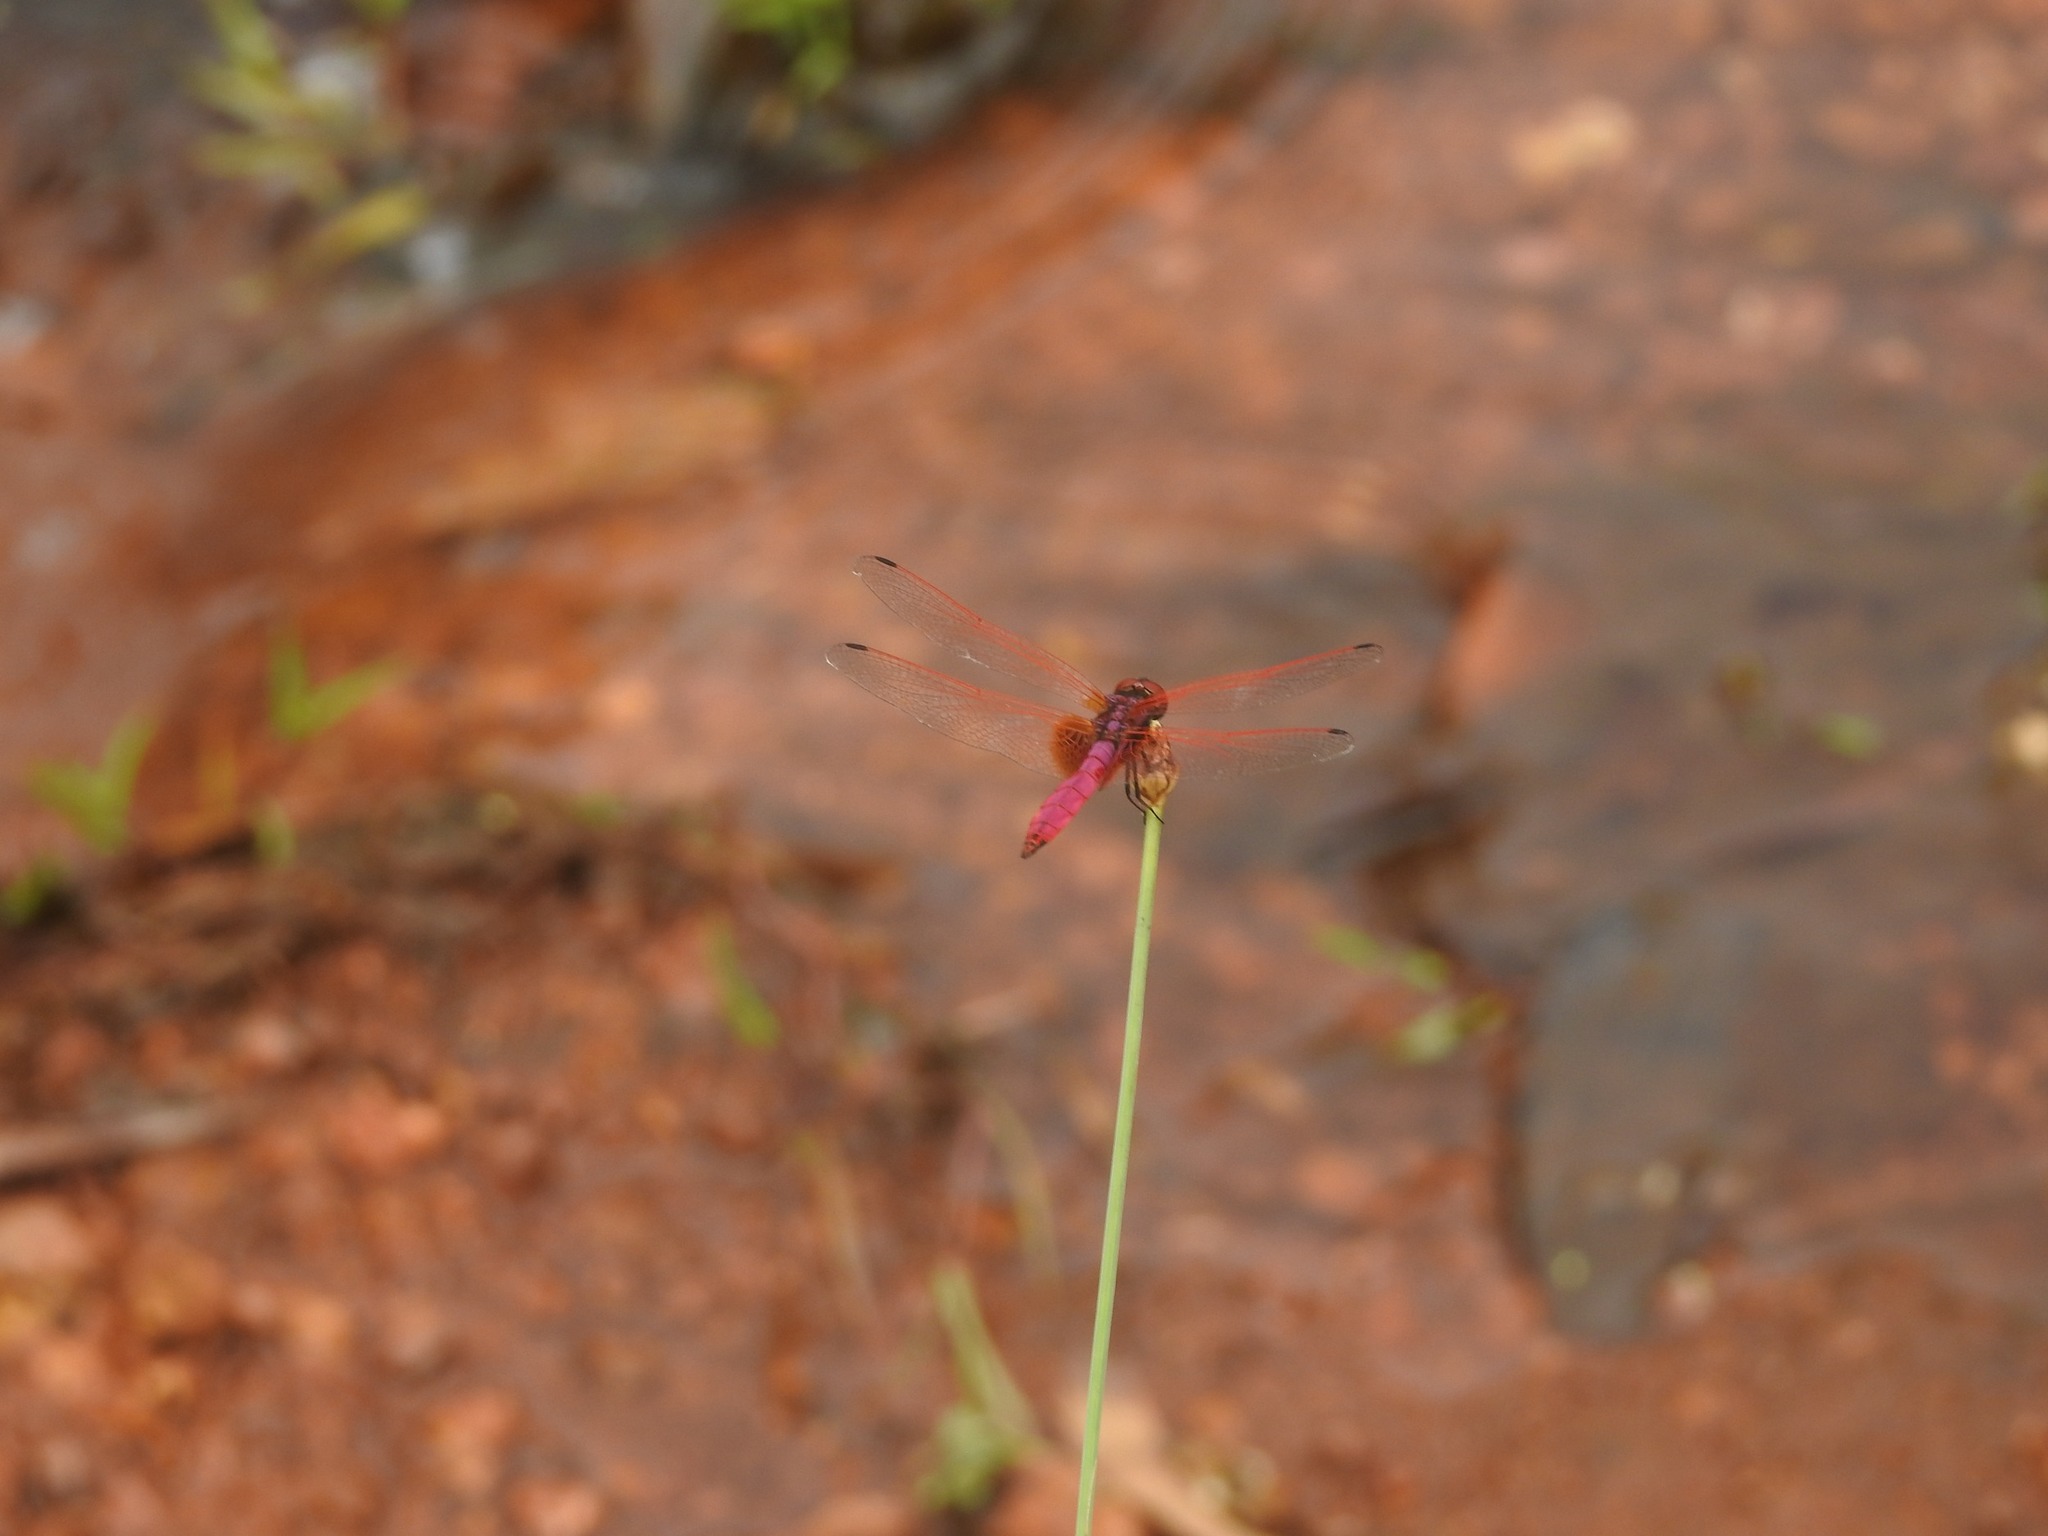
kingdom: Animalia
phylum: Arthropoda
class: Insecta
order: Odonata
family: Libellulidae
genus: Trithemis
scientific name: Trithemis aurora
